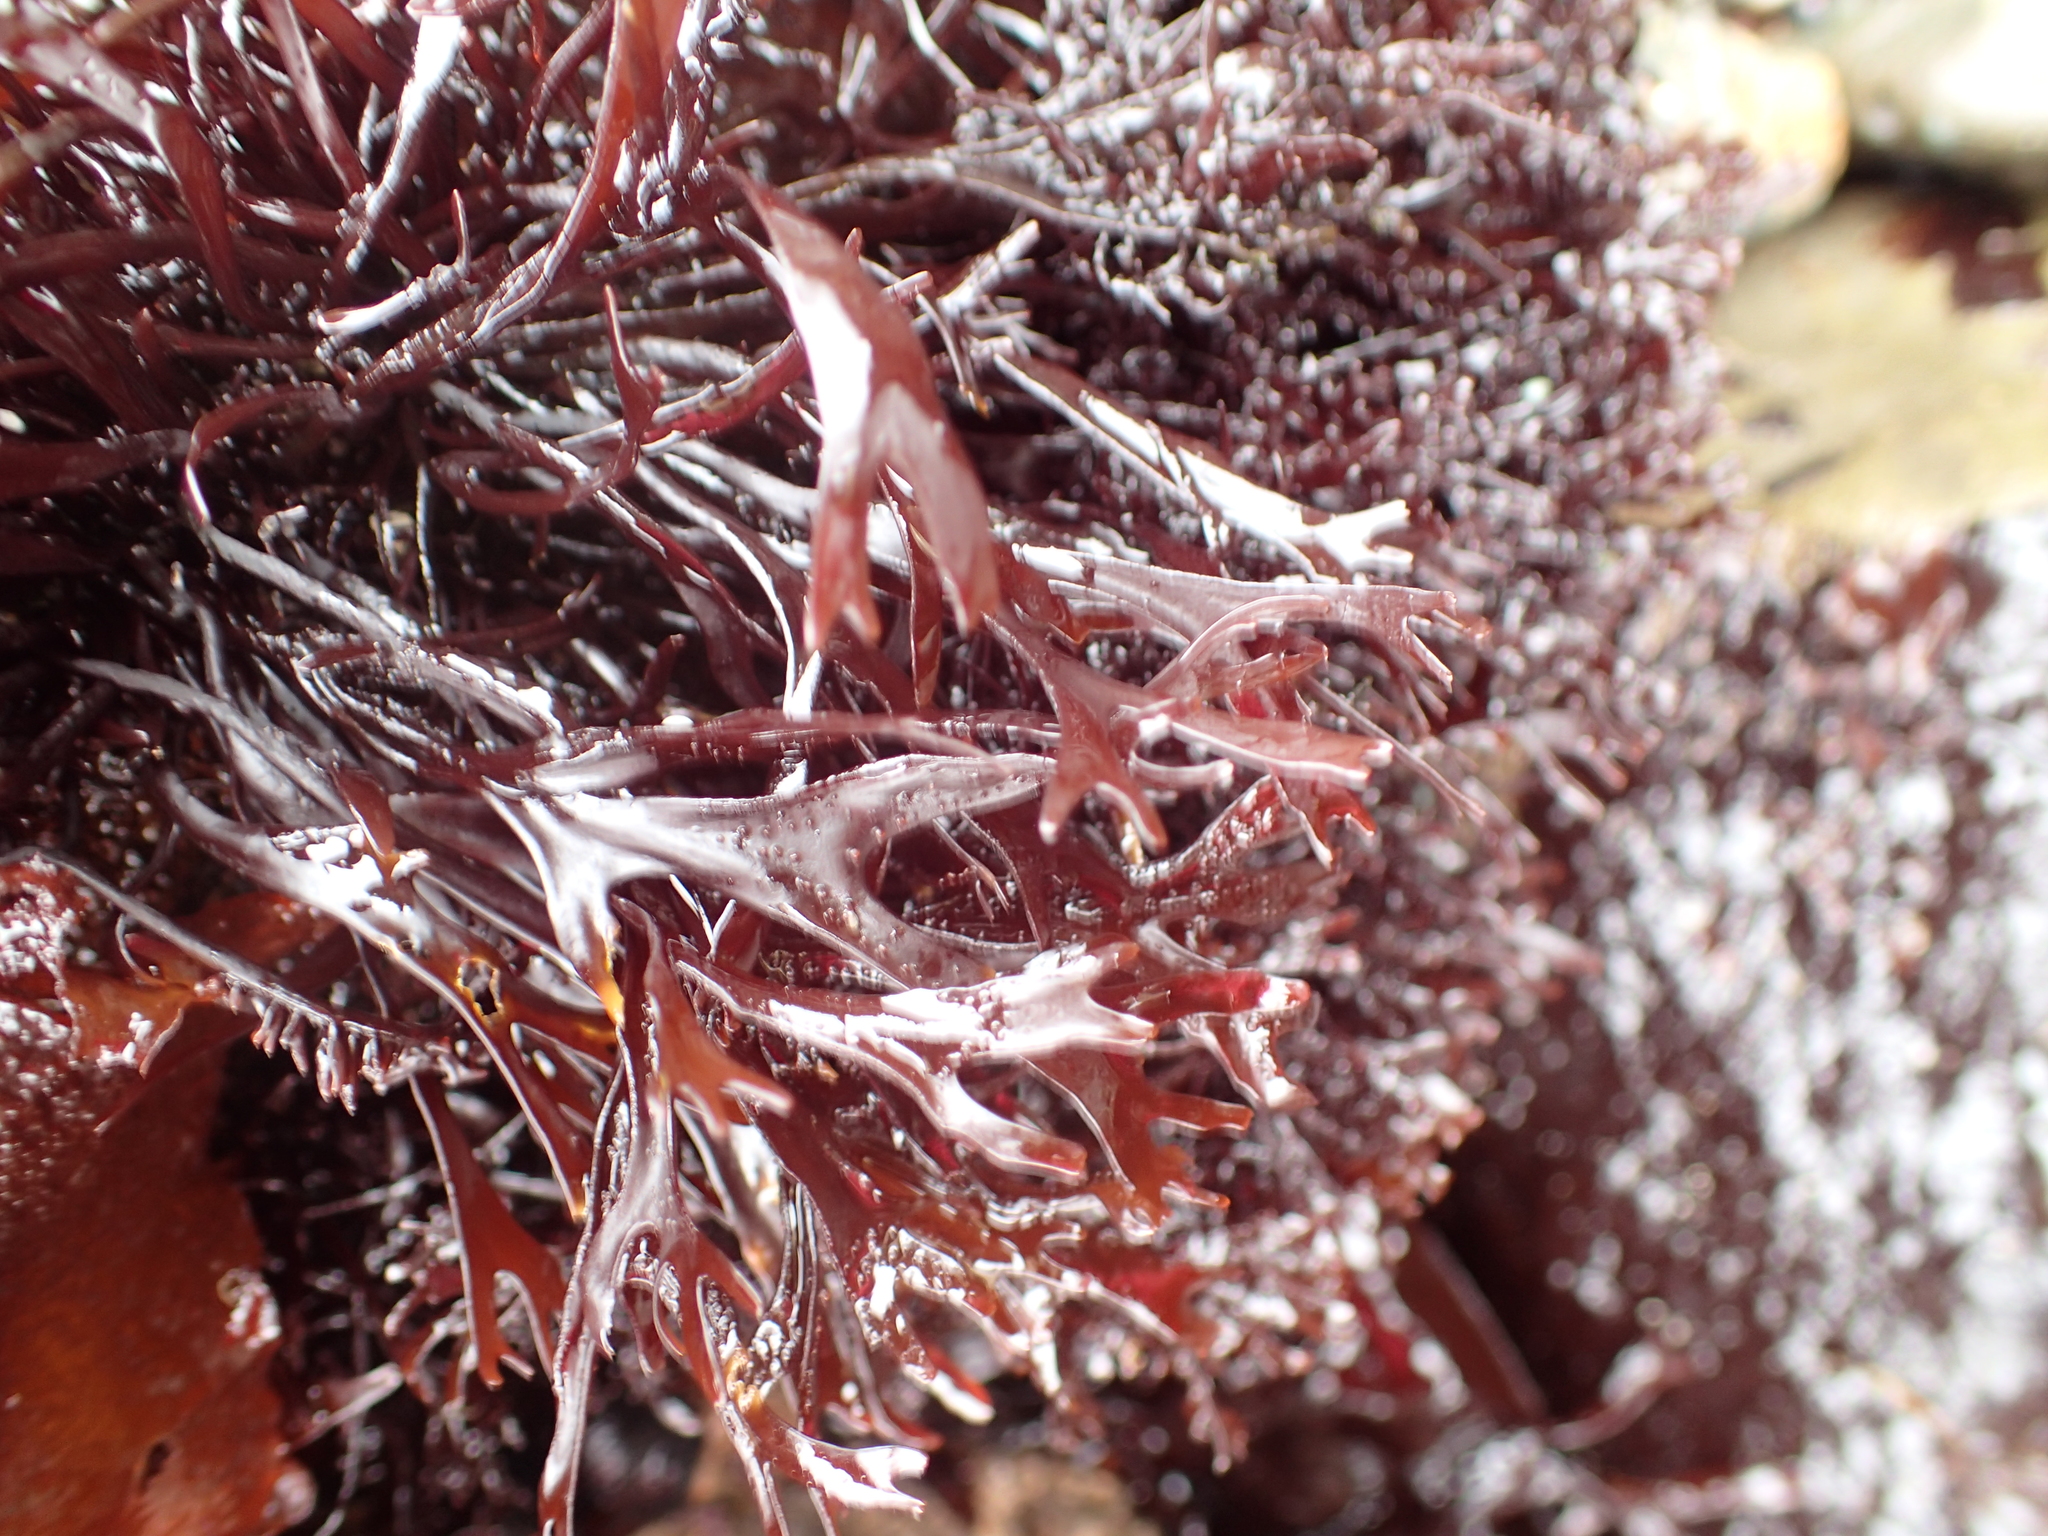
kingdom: Plantae
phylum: Rhodophyta
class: Florideophyceae
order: Gigartinales
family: Phyllophoraceae
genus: Mastocarpus
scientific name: Mastocarpus jardinii
